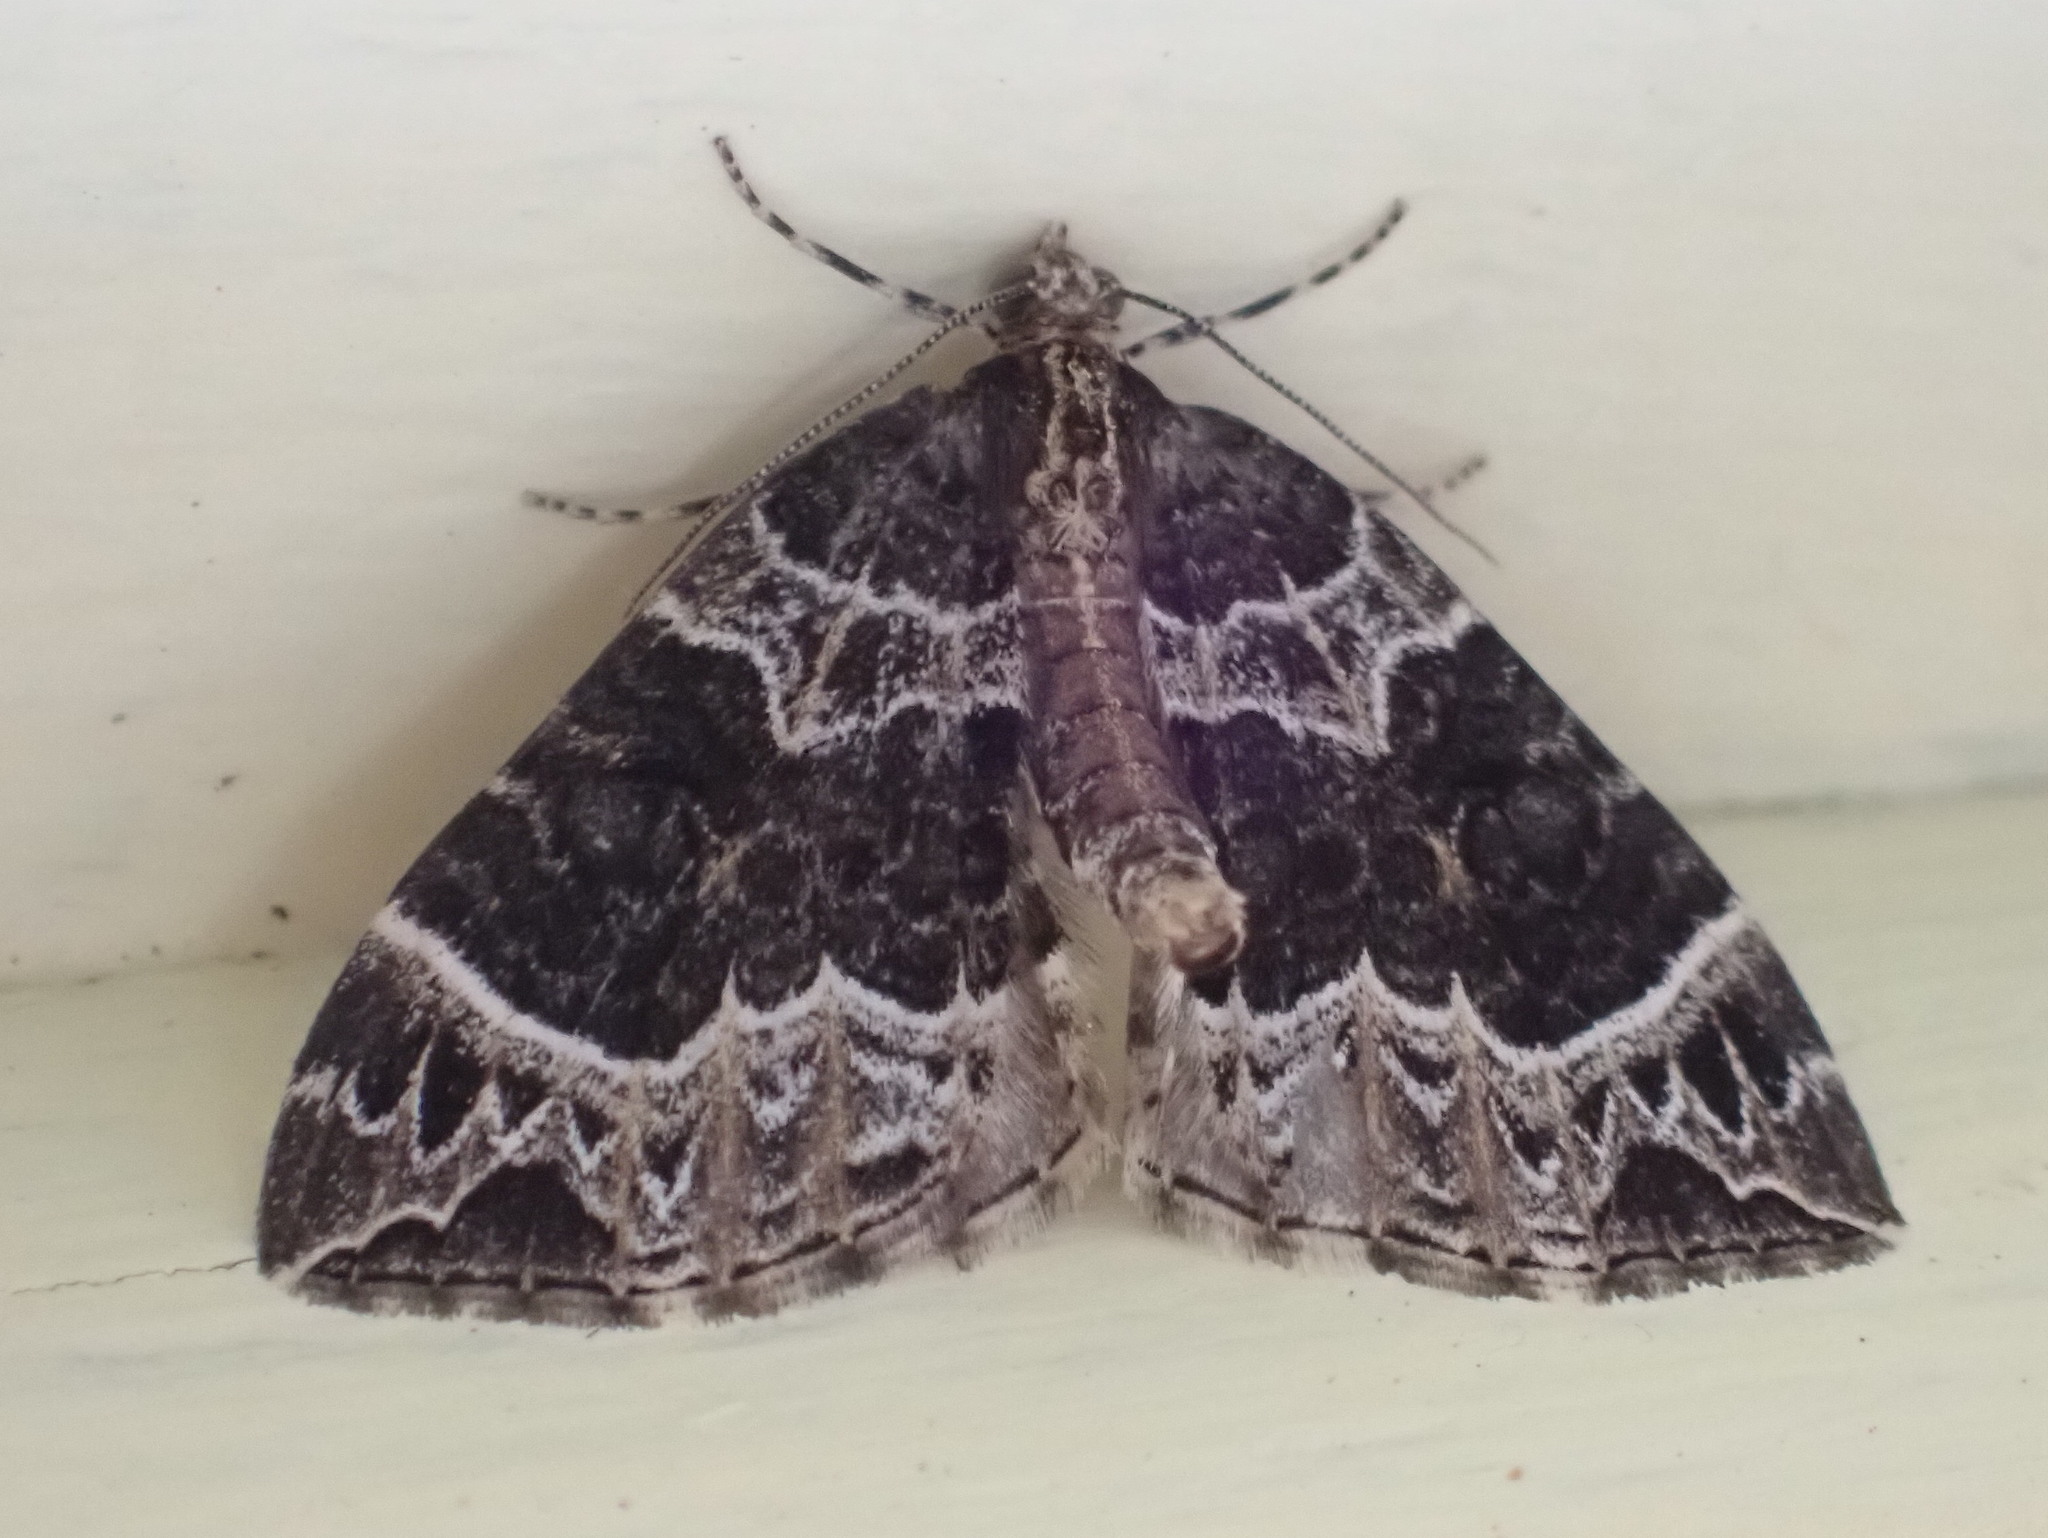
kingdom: Animalia
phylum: Arthropoda
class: Insecta
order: Lepidoptera
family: Geometridae
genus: Ecliptopera
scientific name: Ecliptopera silaceata
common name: Small phoenix
